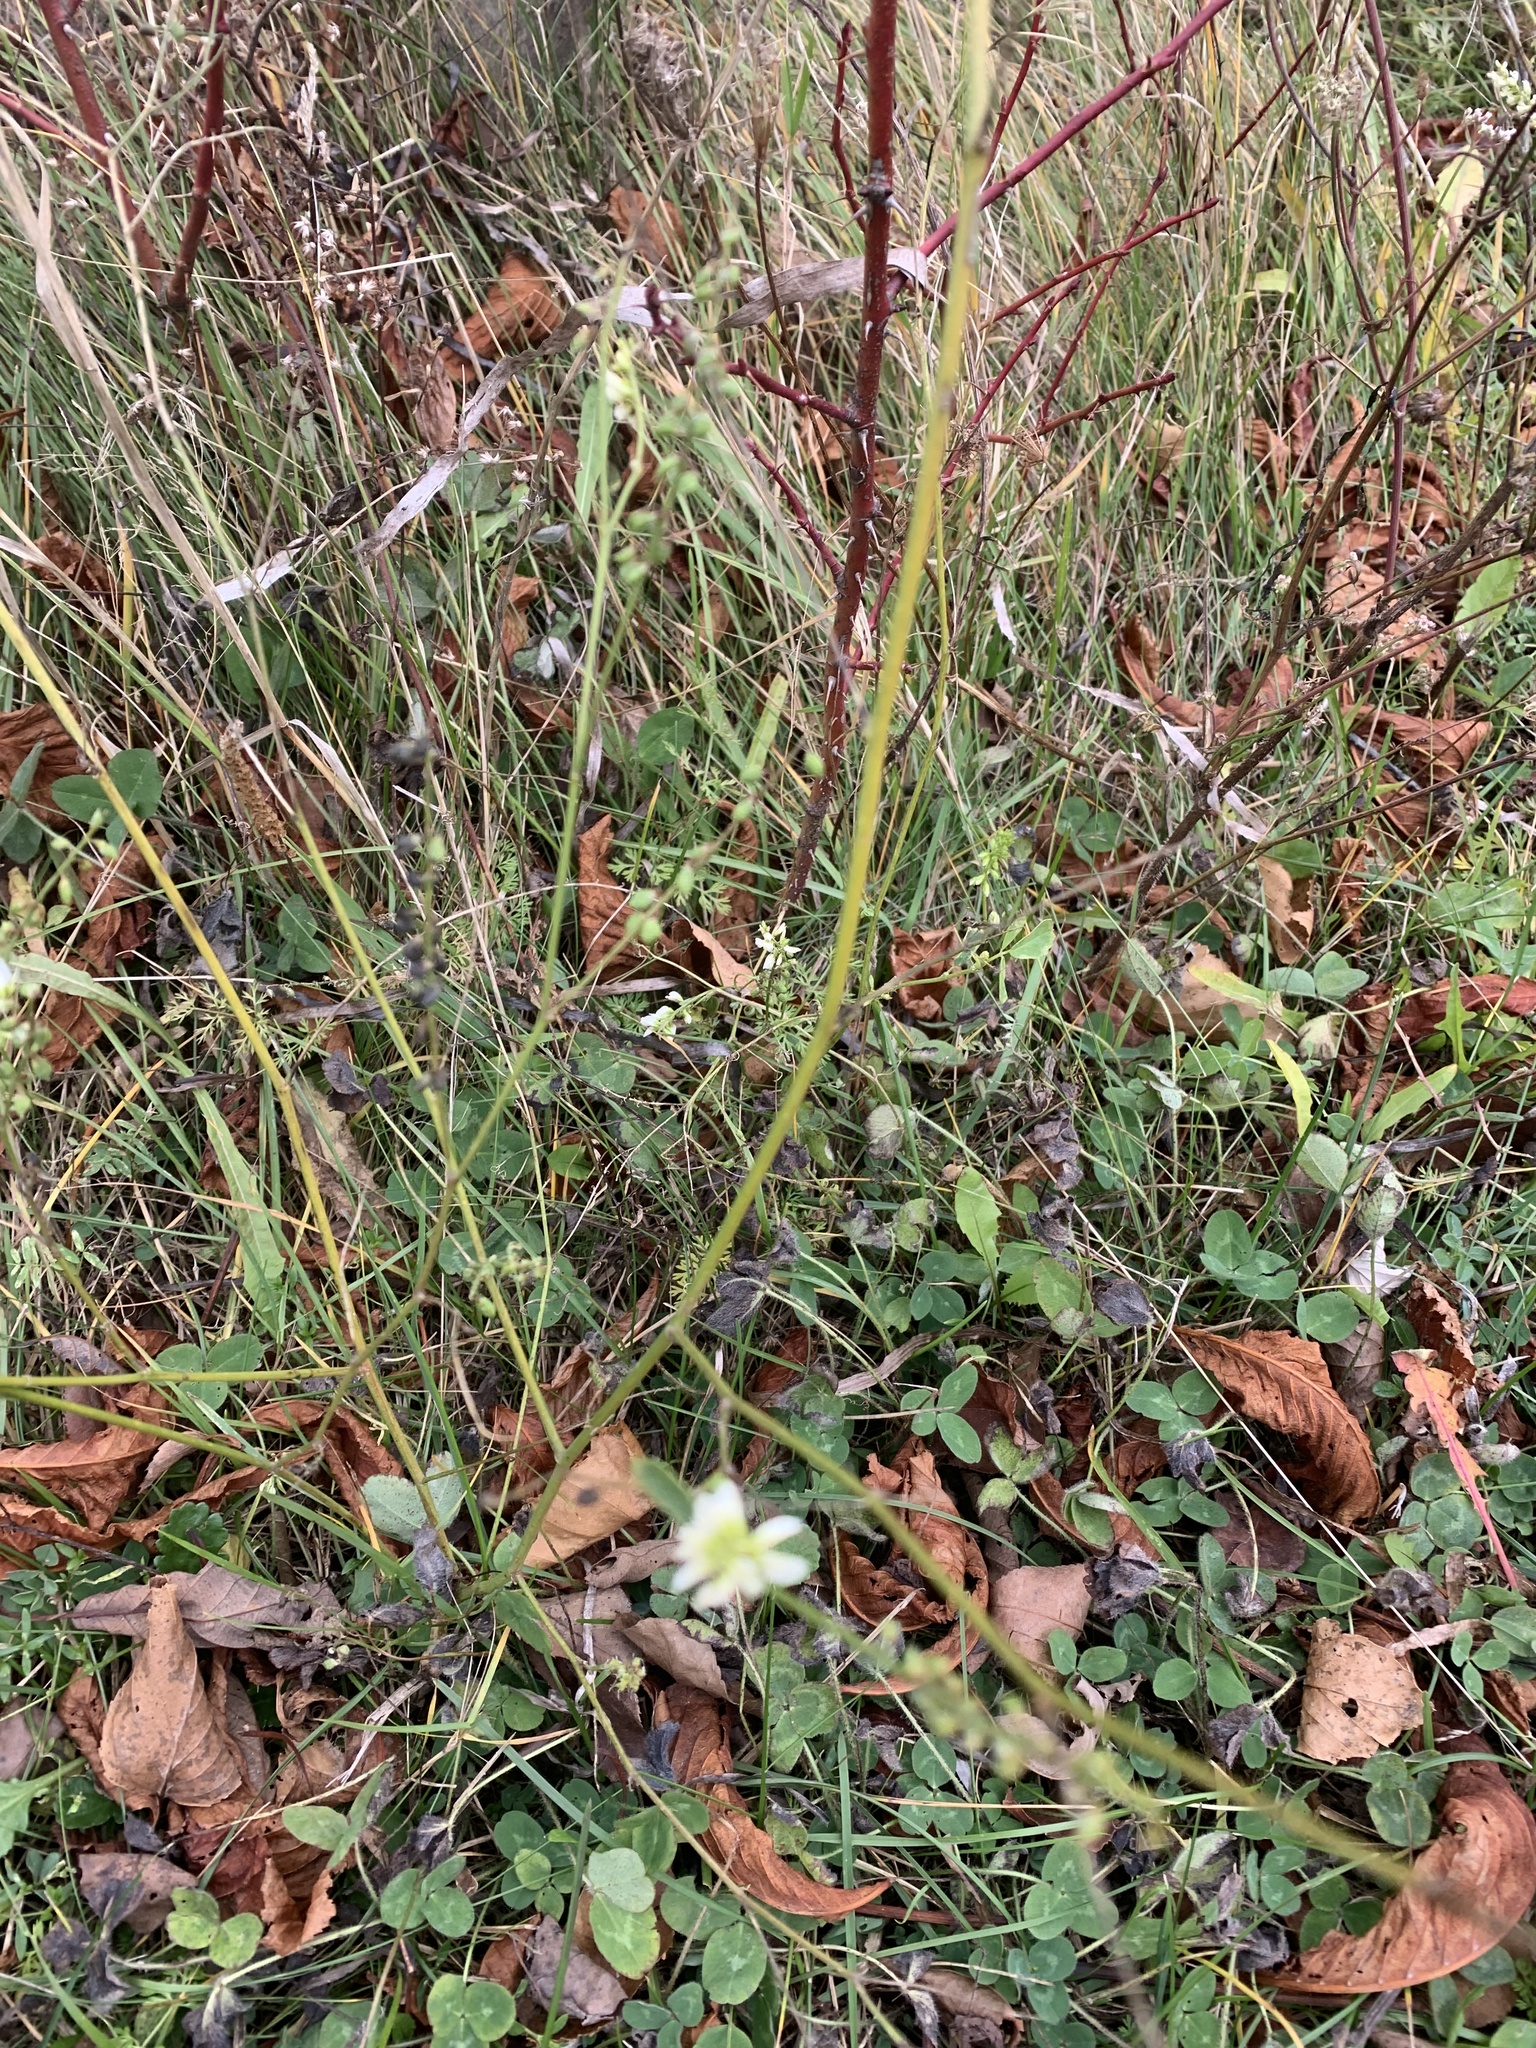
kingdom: Plantae
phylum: Tracheophyta
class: Magnoliopsida
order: Fabales
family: Fabaceae
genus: Melilotus
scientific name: Melilotus albus
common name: White melilot
